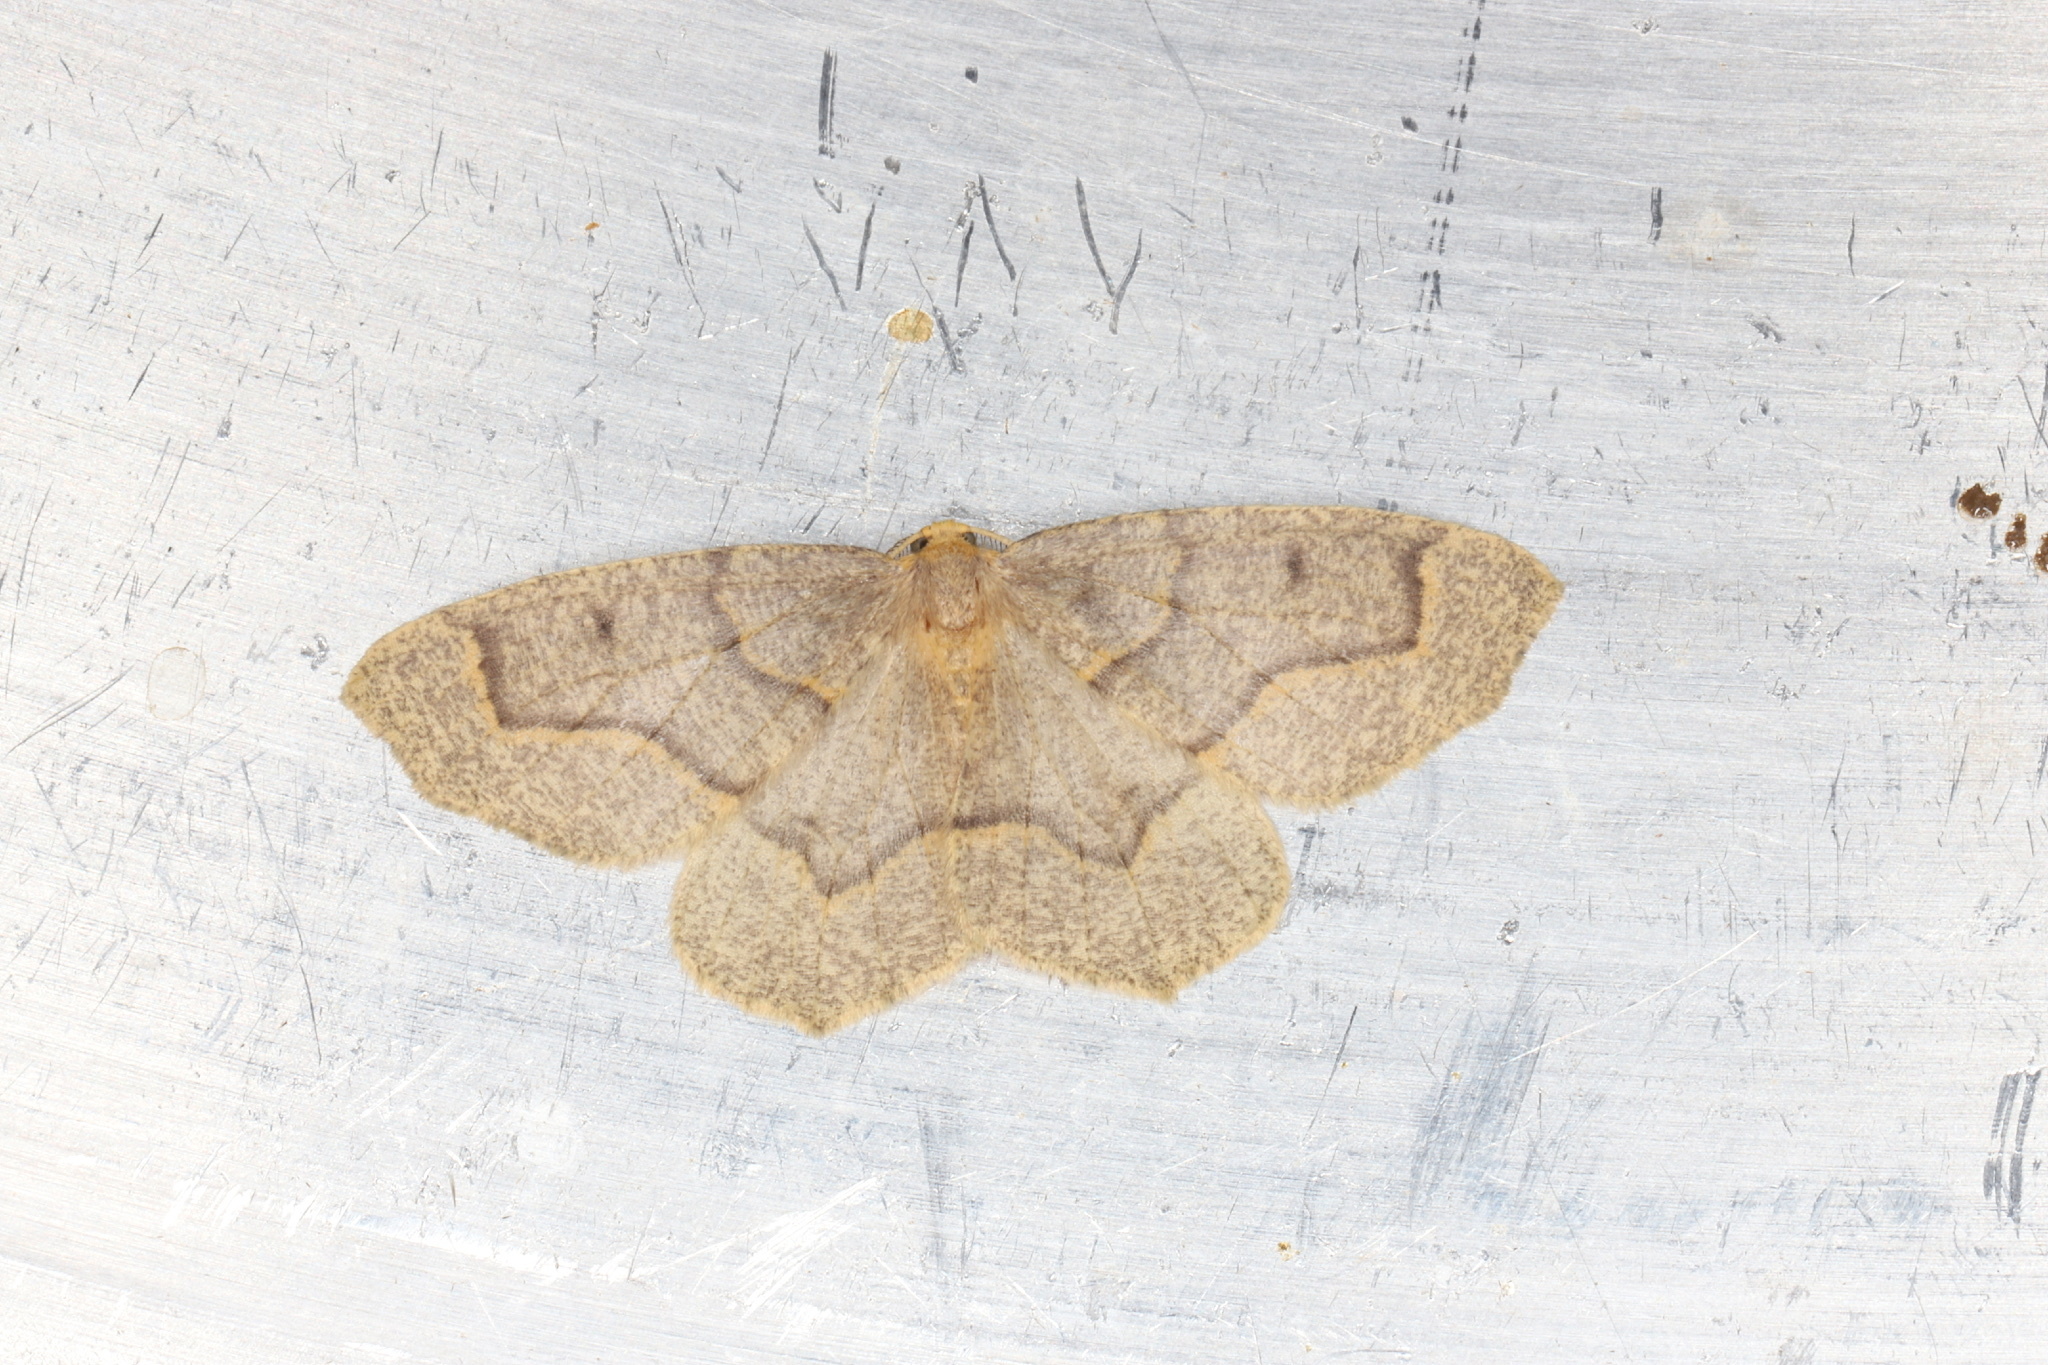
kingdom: Animalia
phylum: Arthropoda
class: Insecta
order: Lepidoptera
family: Geometridae
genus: Lambdina
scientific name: Lambdina fiscellaria
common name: Hemlock looper
